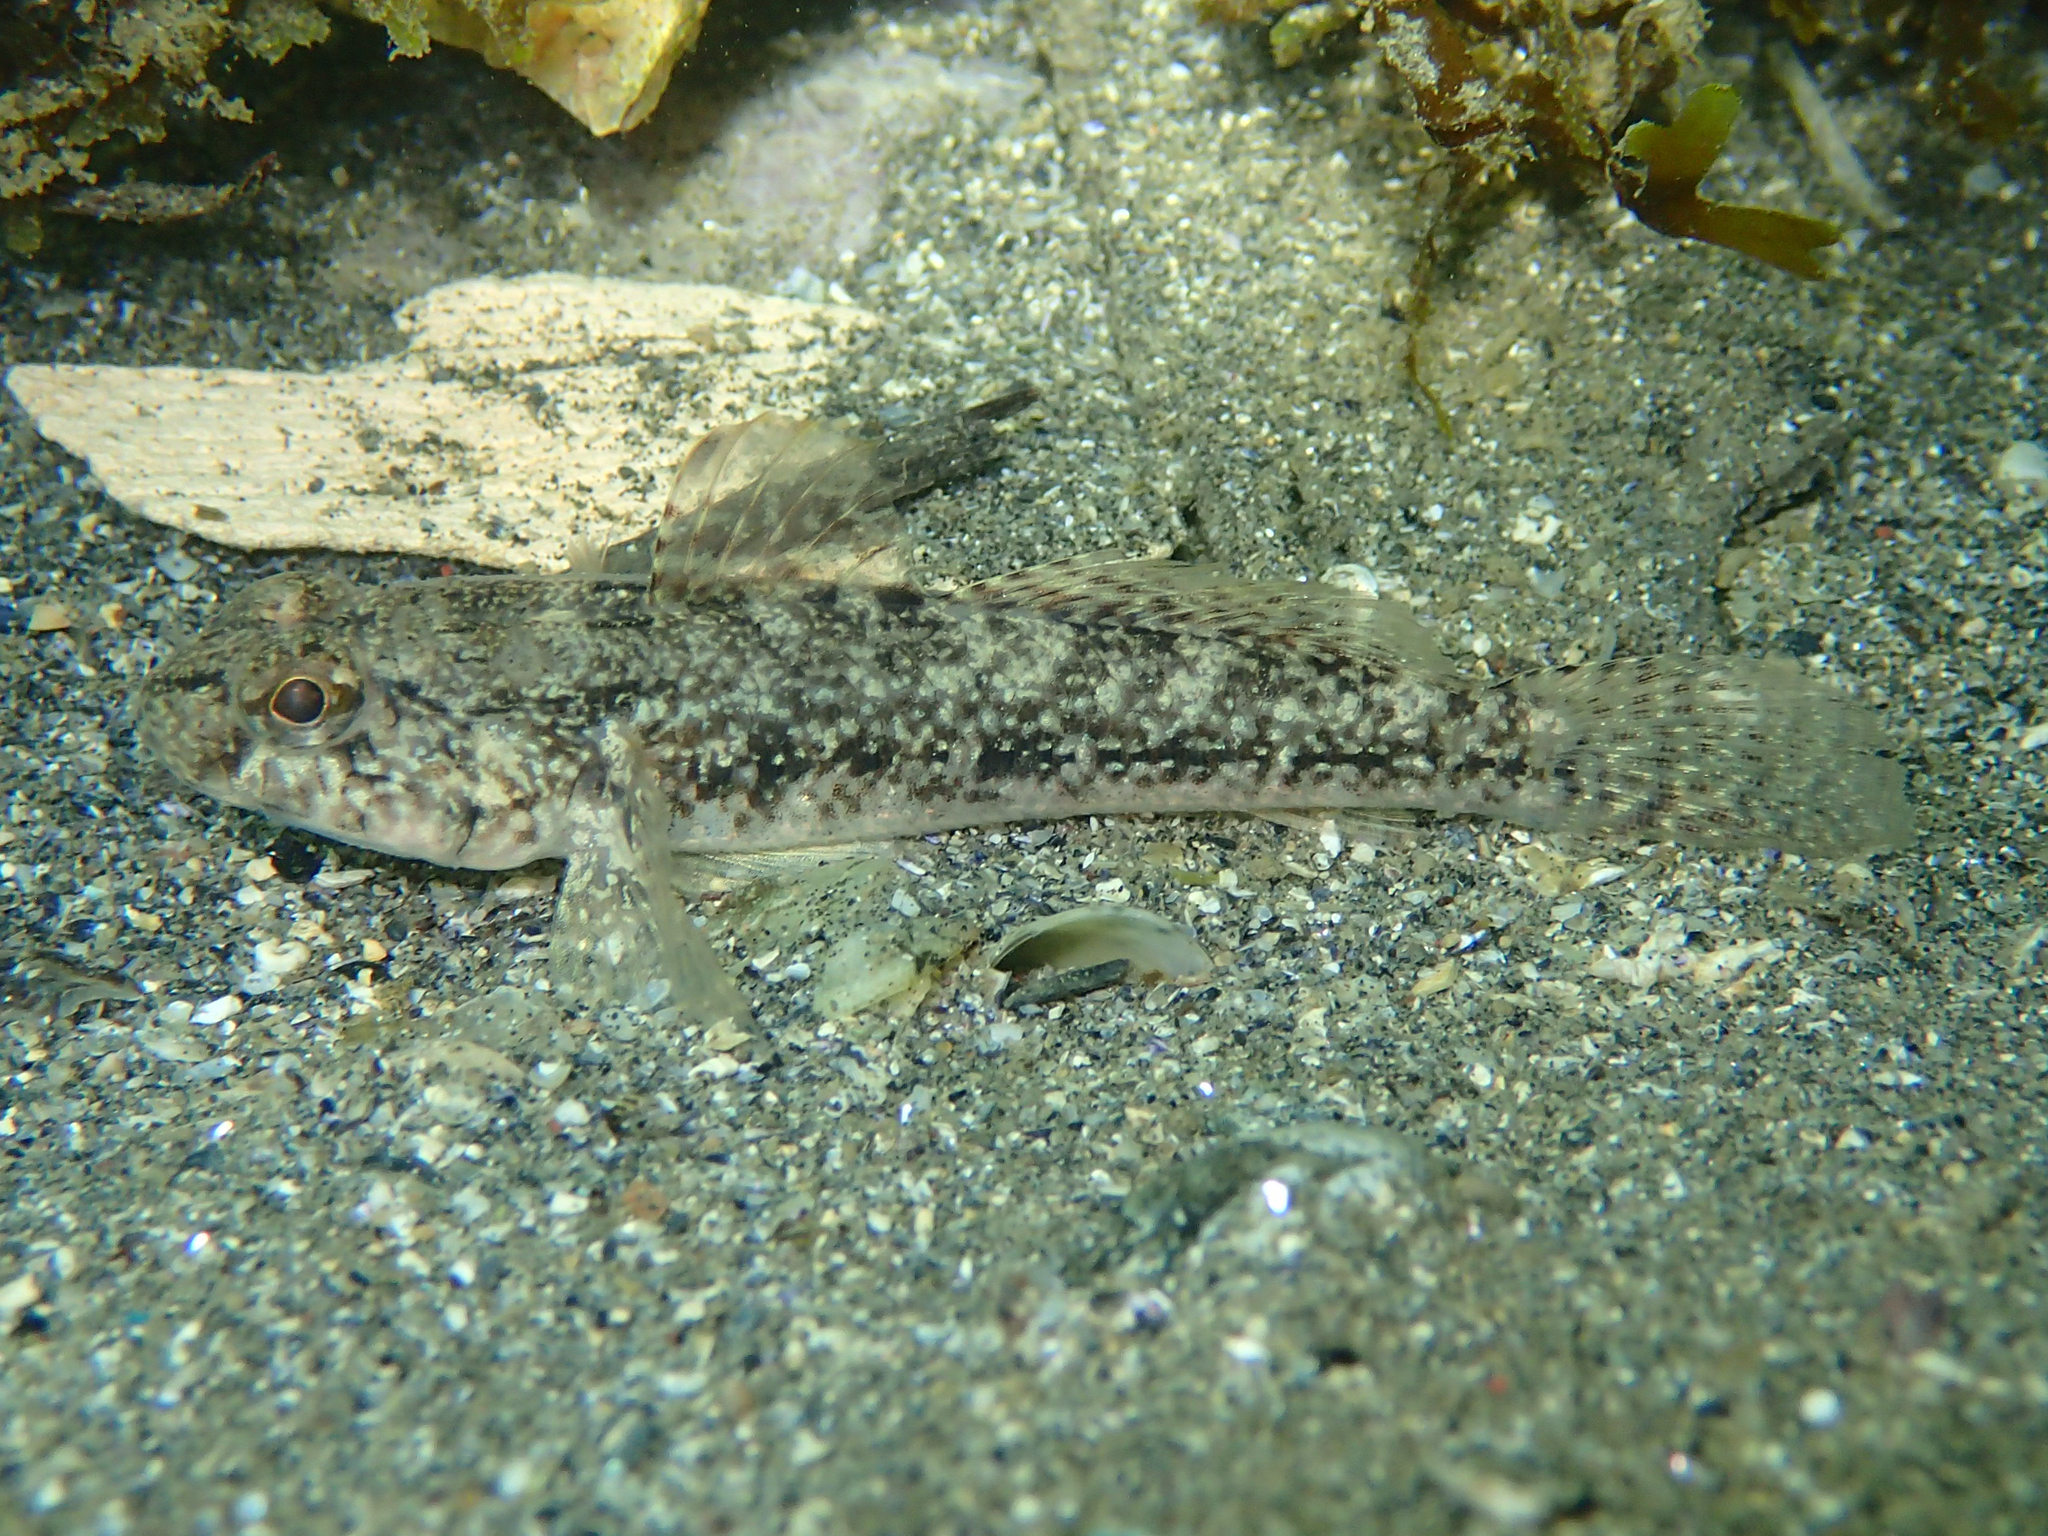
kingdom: Animalia
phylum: Chordata
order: Perciformes
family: Gobiidae
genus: Gobius
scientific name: Gobius niger
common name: Black goby
